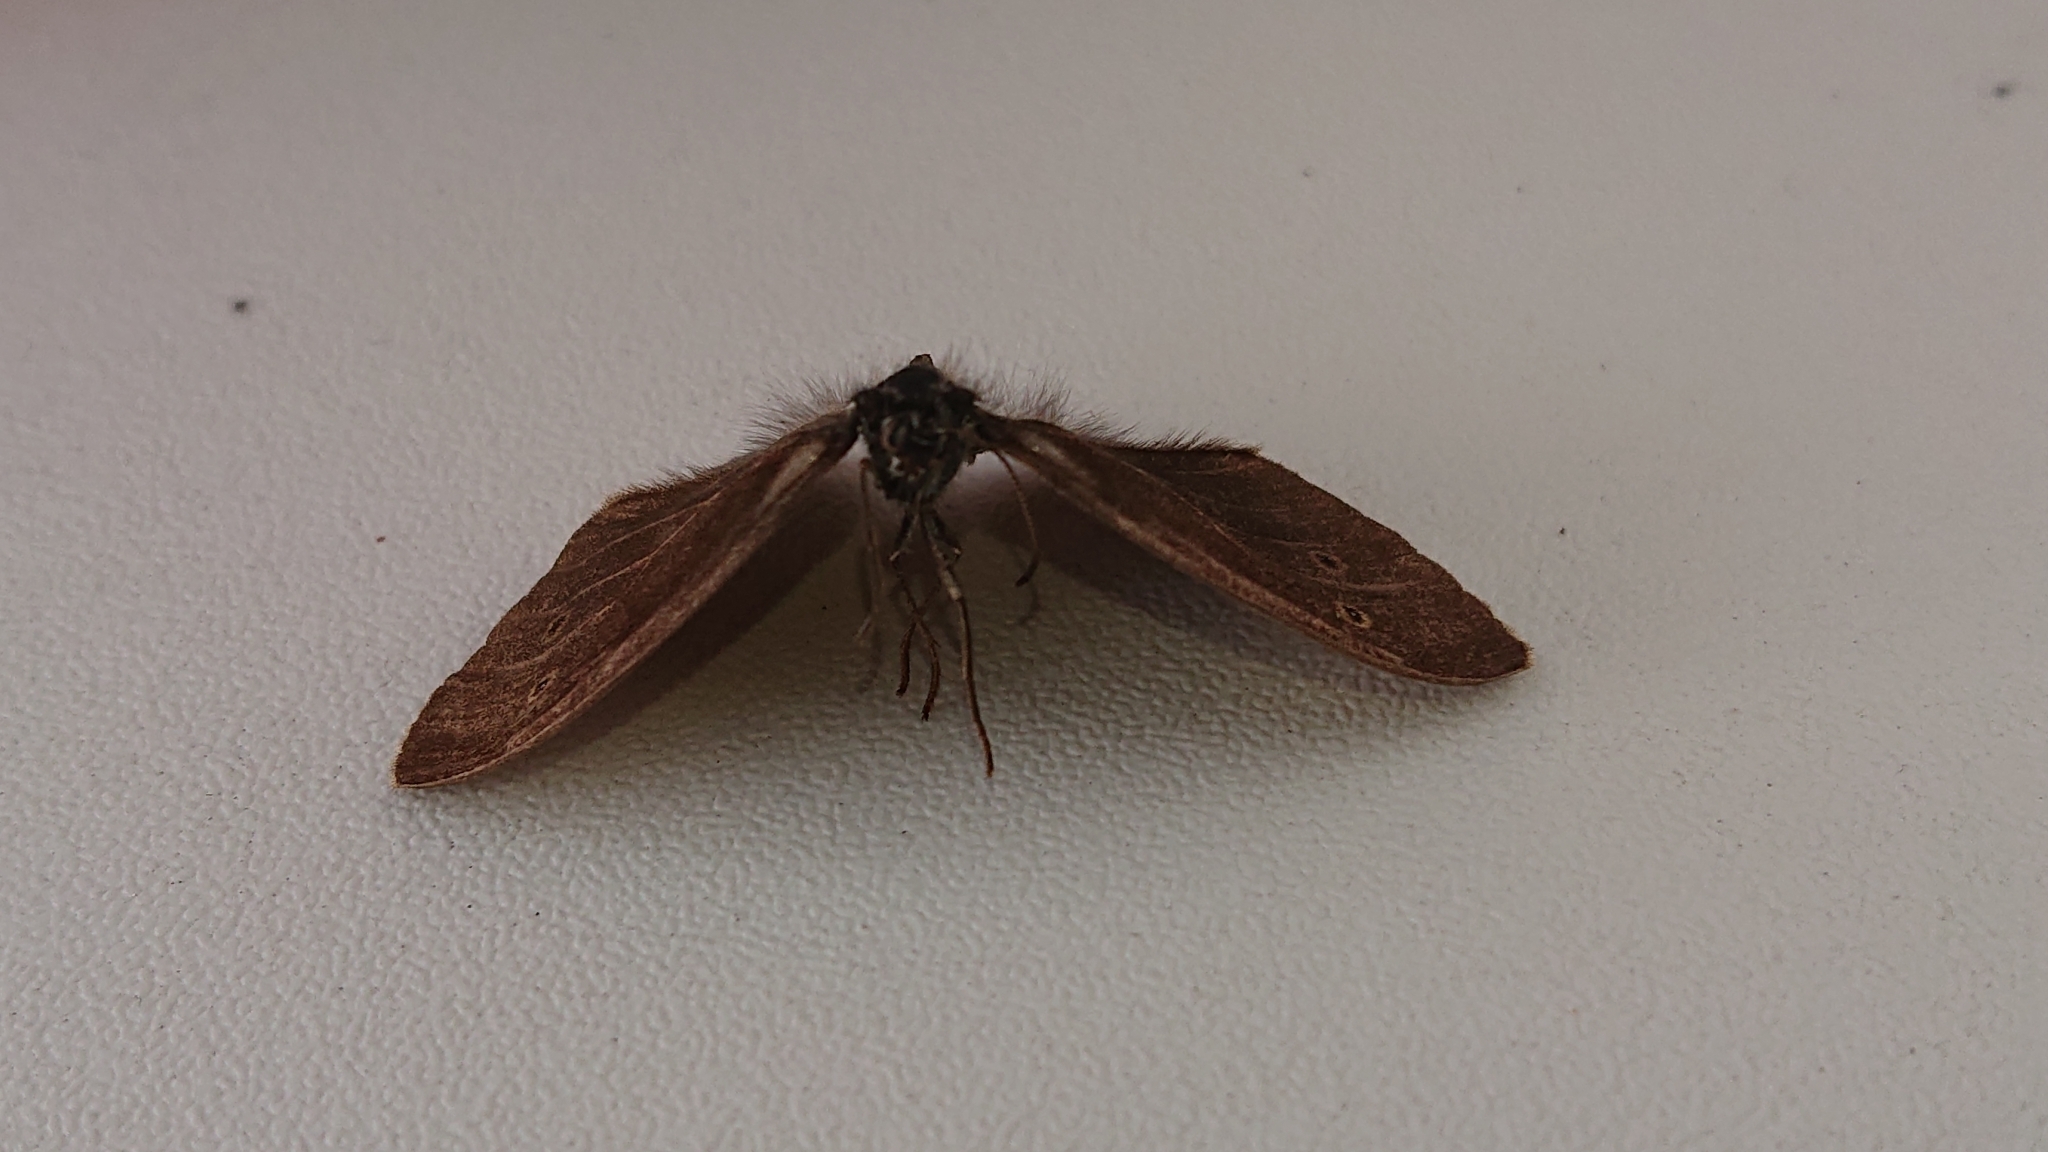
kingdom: Animalia
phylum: Arthropoda
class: Insecta
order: Lepidoptera
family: Nymphalidae
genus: Aphantopus
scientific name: Aphantopus hyperantus
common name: Ringlet
